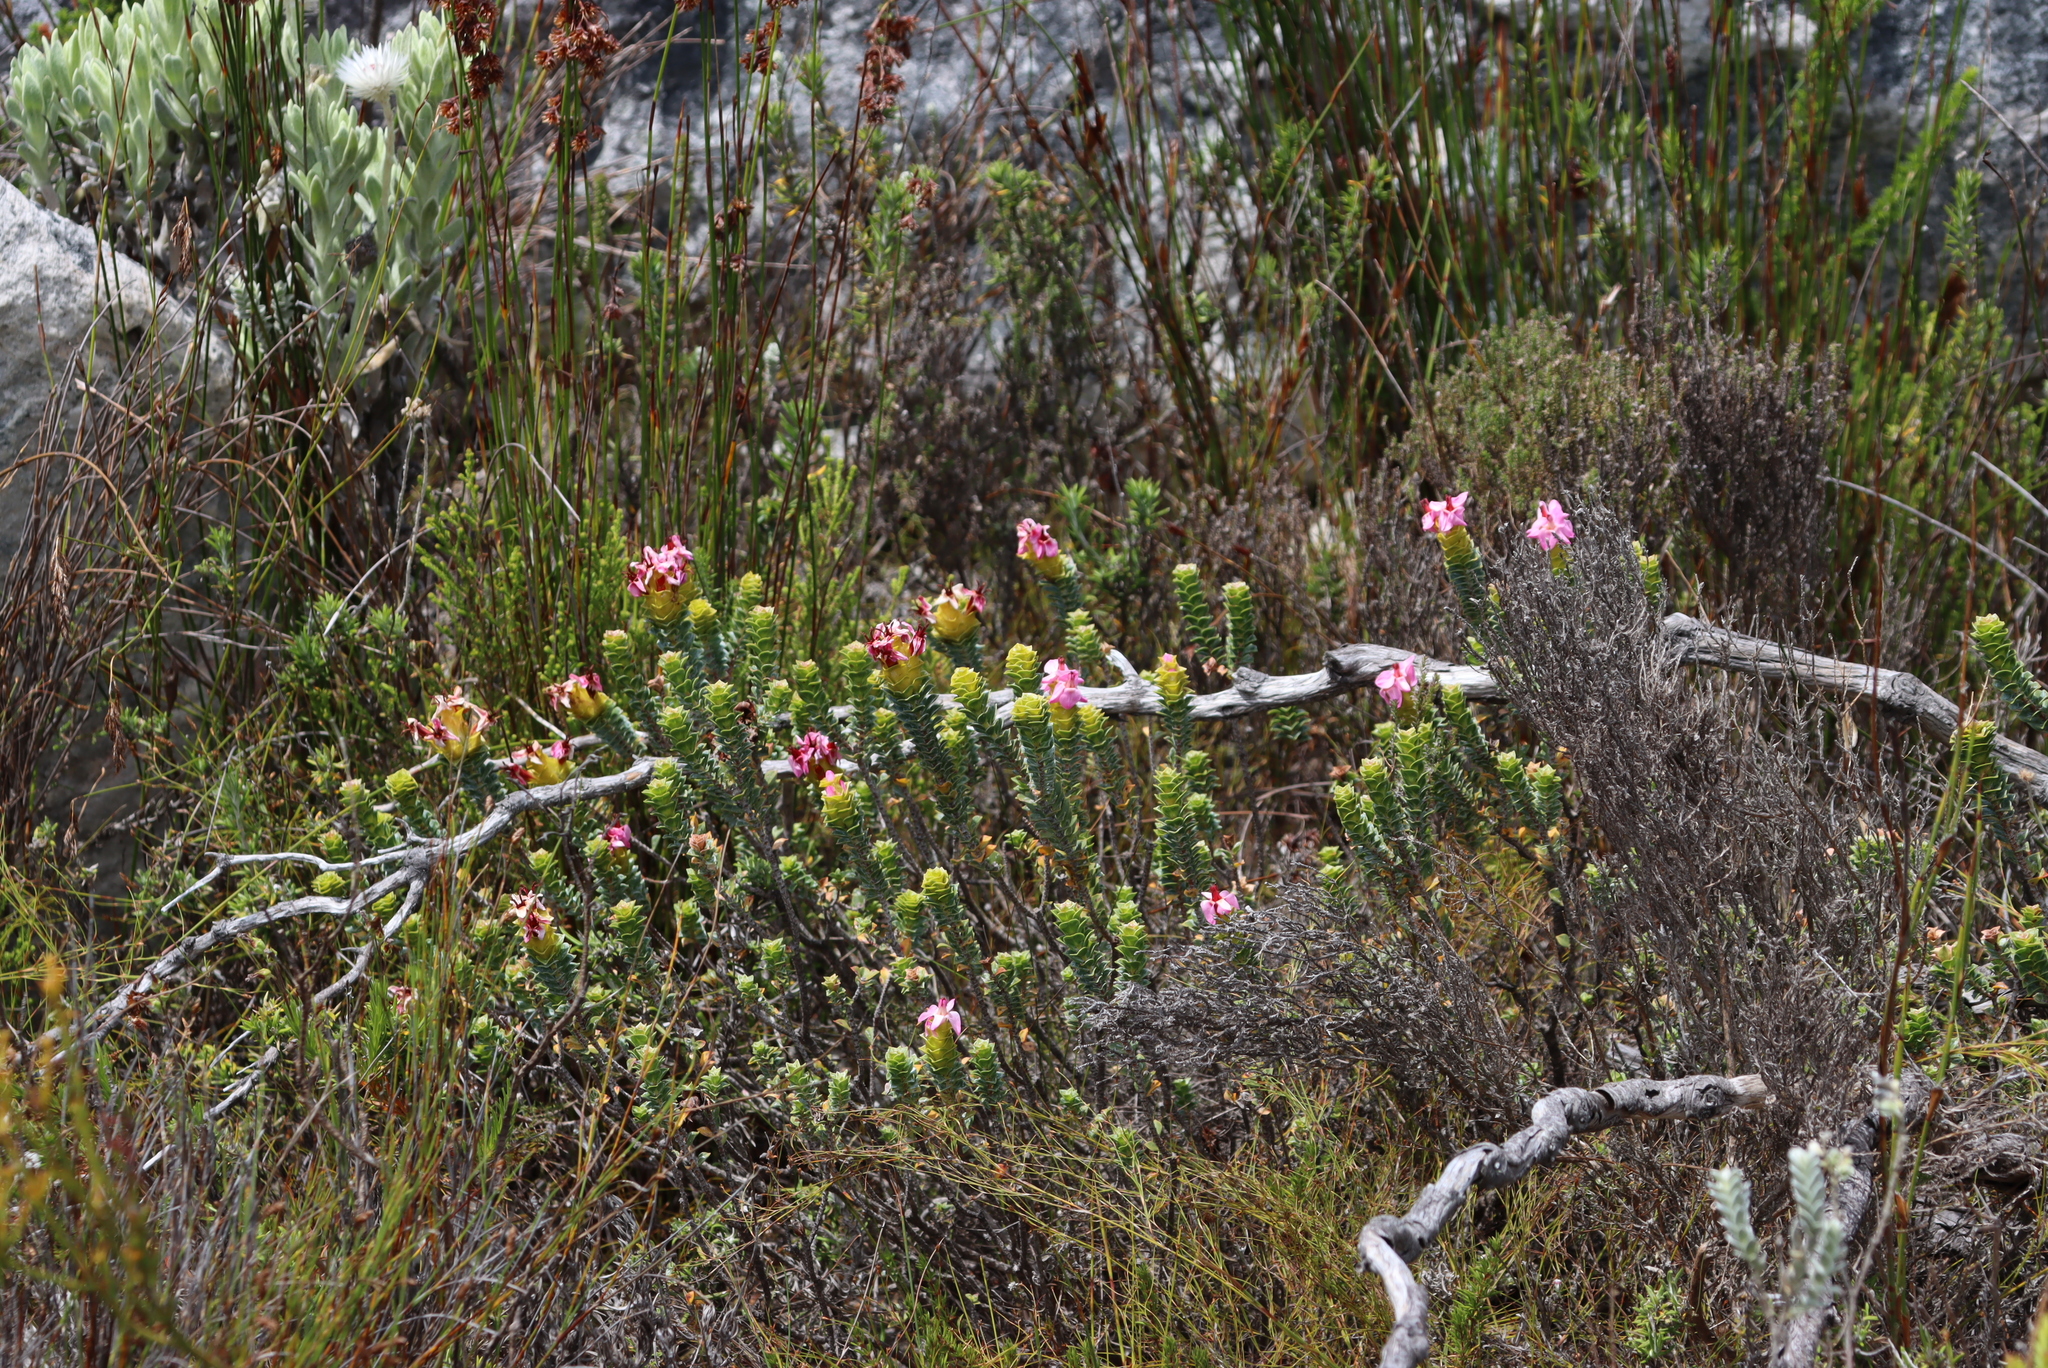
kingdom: Plantae
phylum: Tracheophyta
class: Magnoliopsida
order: Myrtales
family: Penaeaceae
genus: Saltera
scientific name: Saltera sarcocolla
